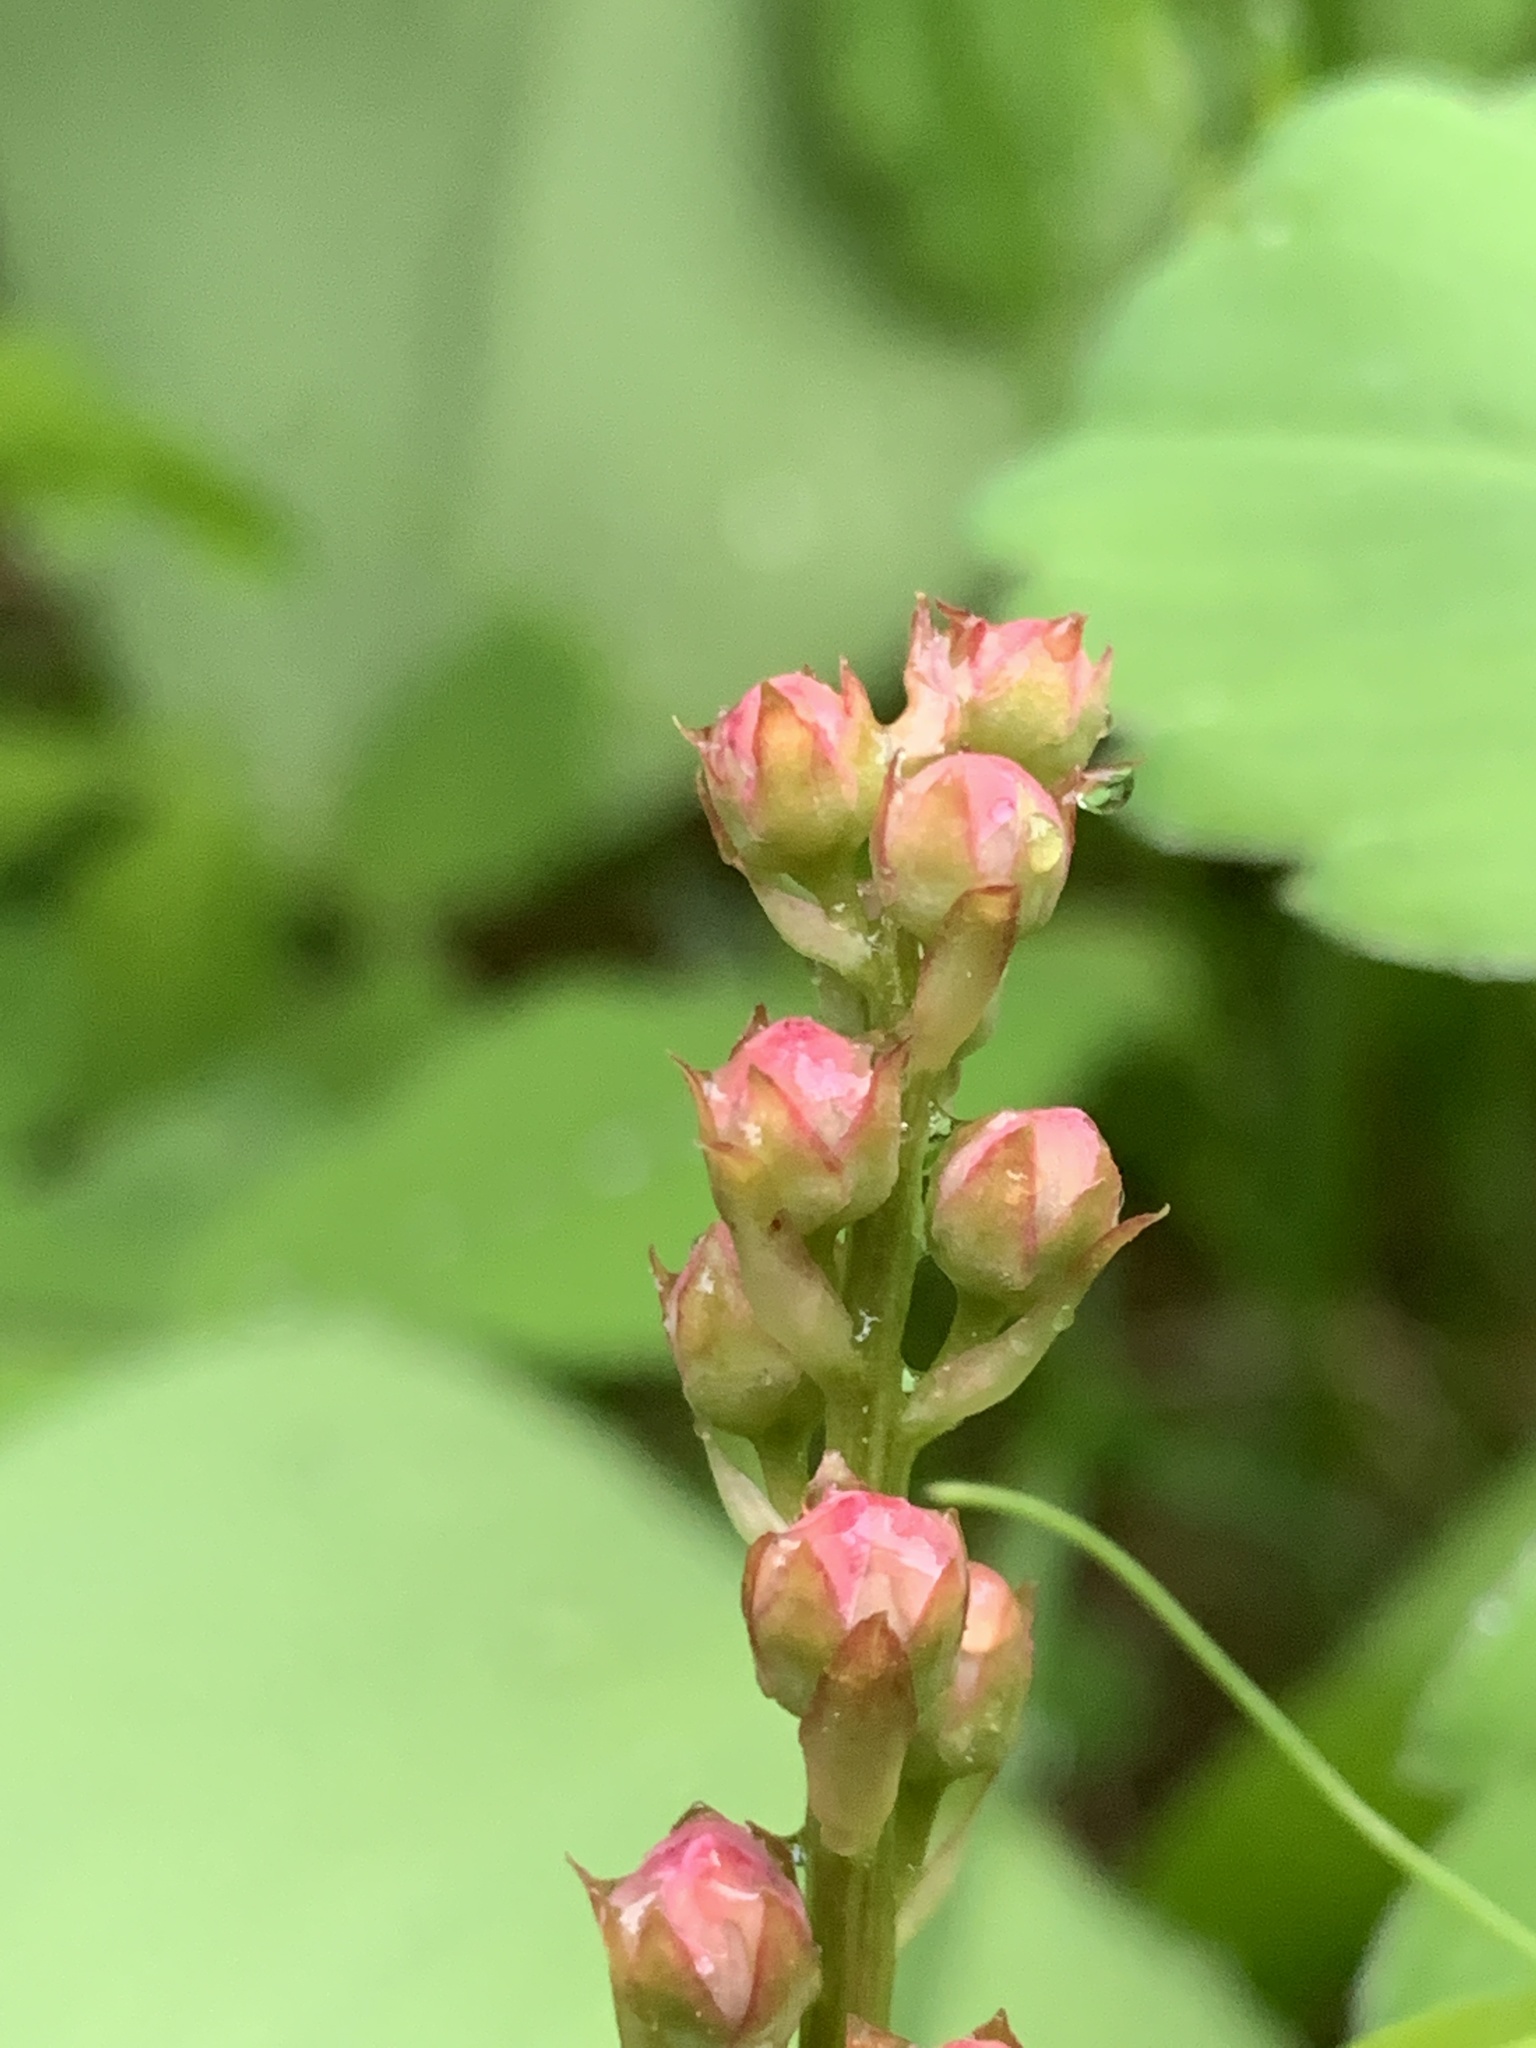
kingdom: Plantae
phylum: Tracheophyta
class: Magnoliopsida
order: Ericales
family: Ericaceae
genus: Pyrola
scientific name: Pyrola asarifolia
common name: Bog wintergreen
